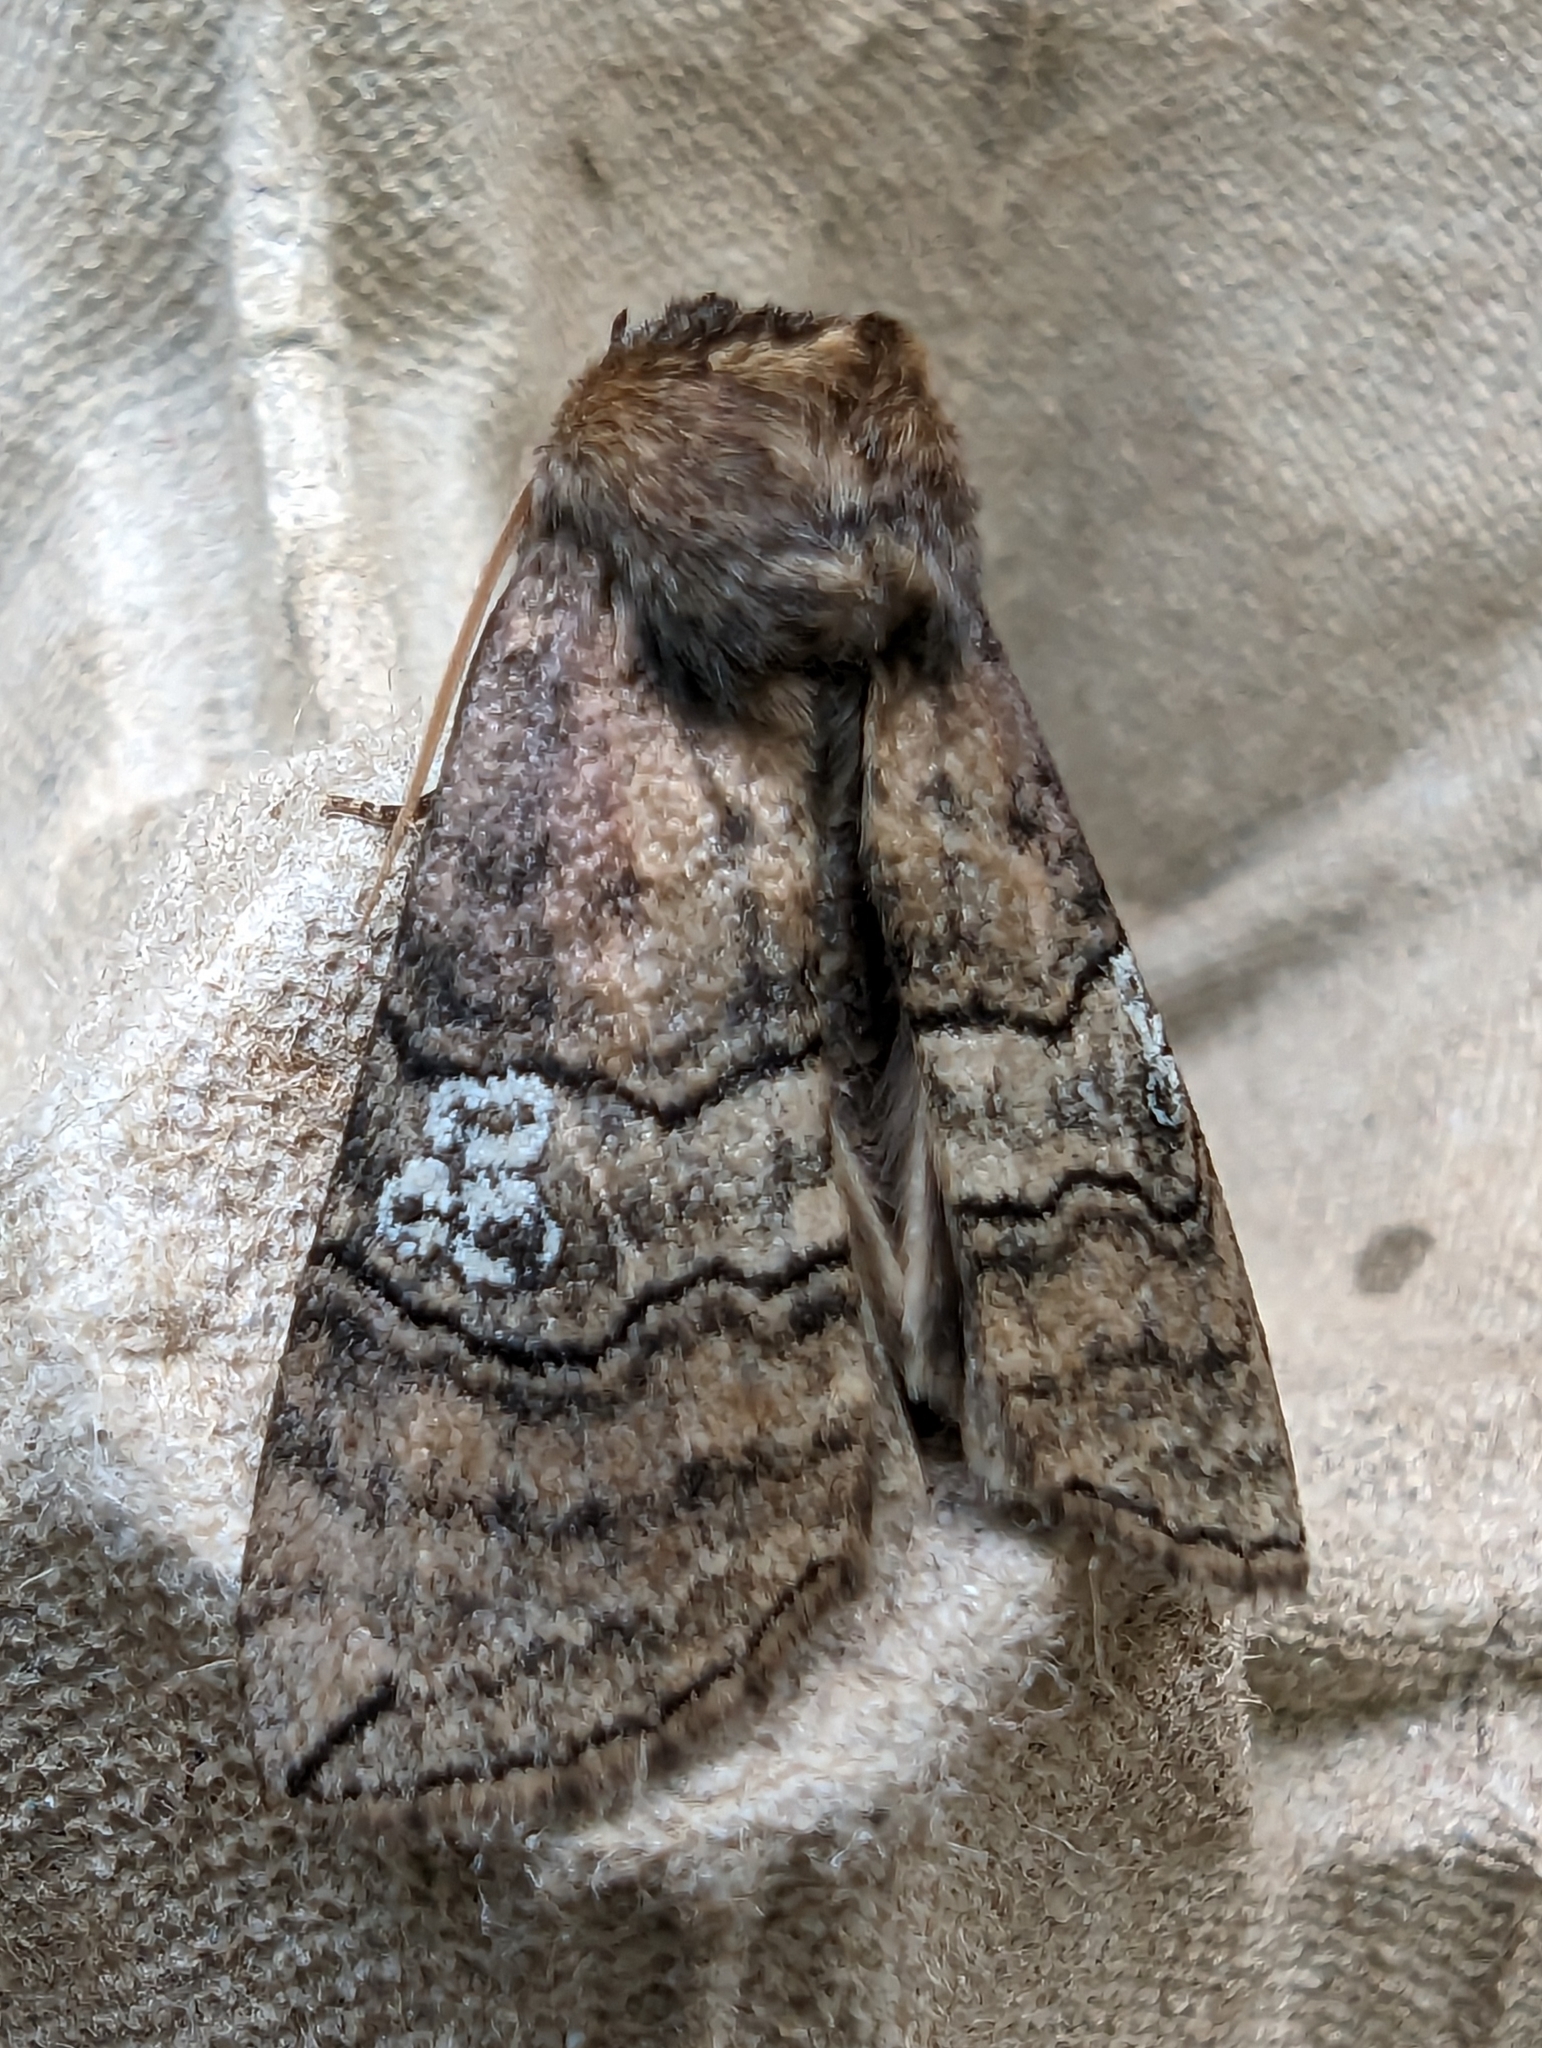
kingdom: Animalia
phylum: Arthropoda
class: Insecta
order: Lepidoptera
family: Drepanidae
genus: Tethea
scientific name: Tethea ocularis
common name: Figure of eighty
